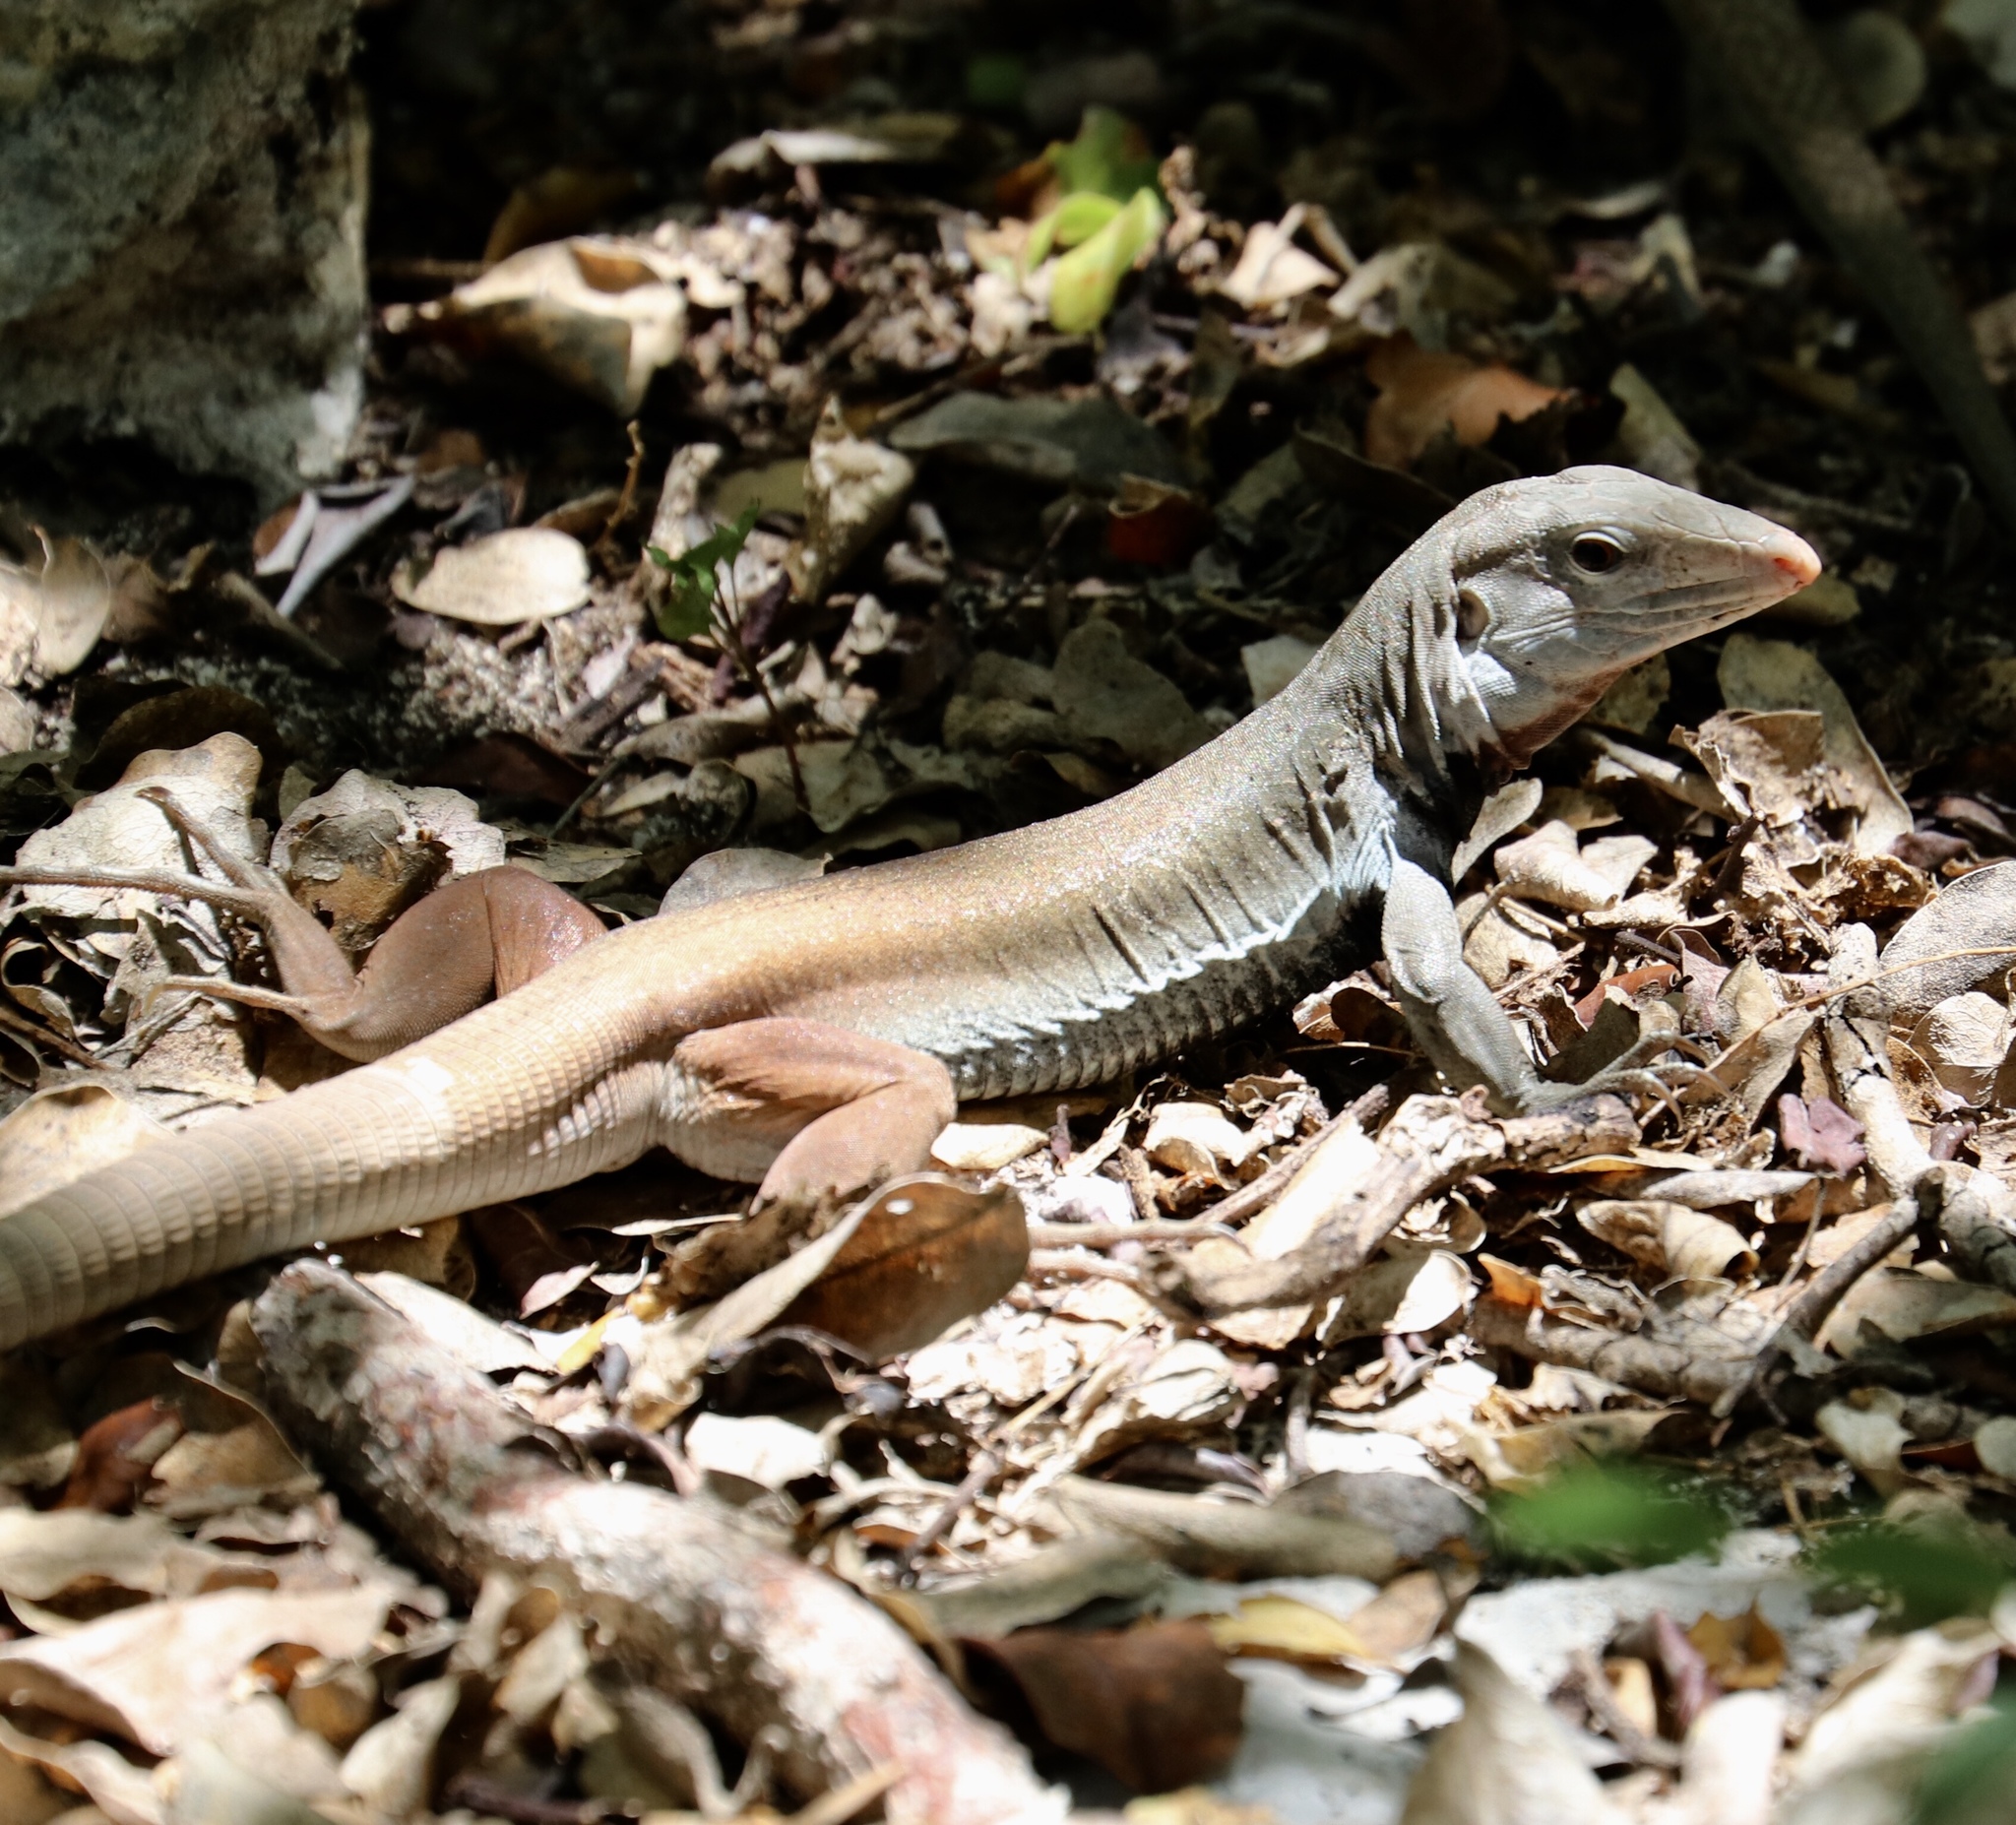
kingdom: Animalia
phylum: Chordata
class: Squamata
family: Teiidae
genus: Pholidoscelis
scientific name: Pholidoscelis chrysolaemus
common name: Common ameiva
